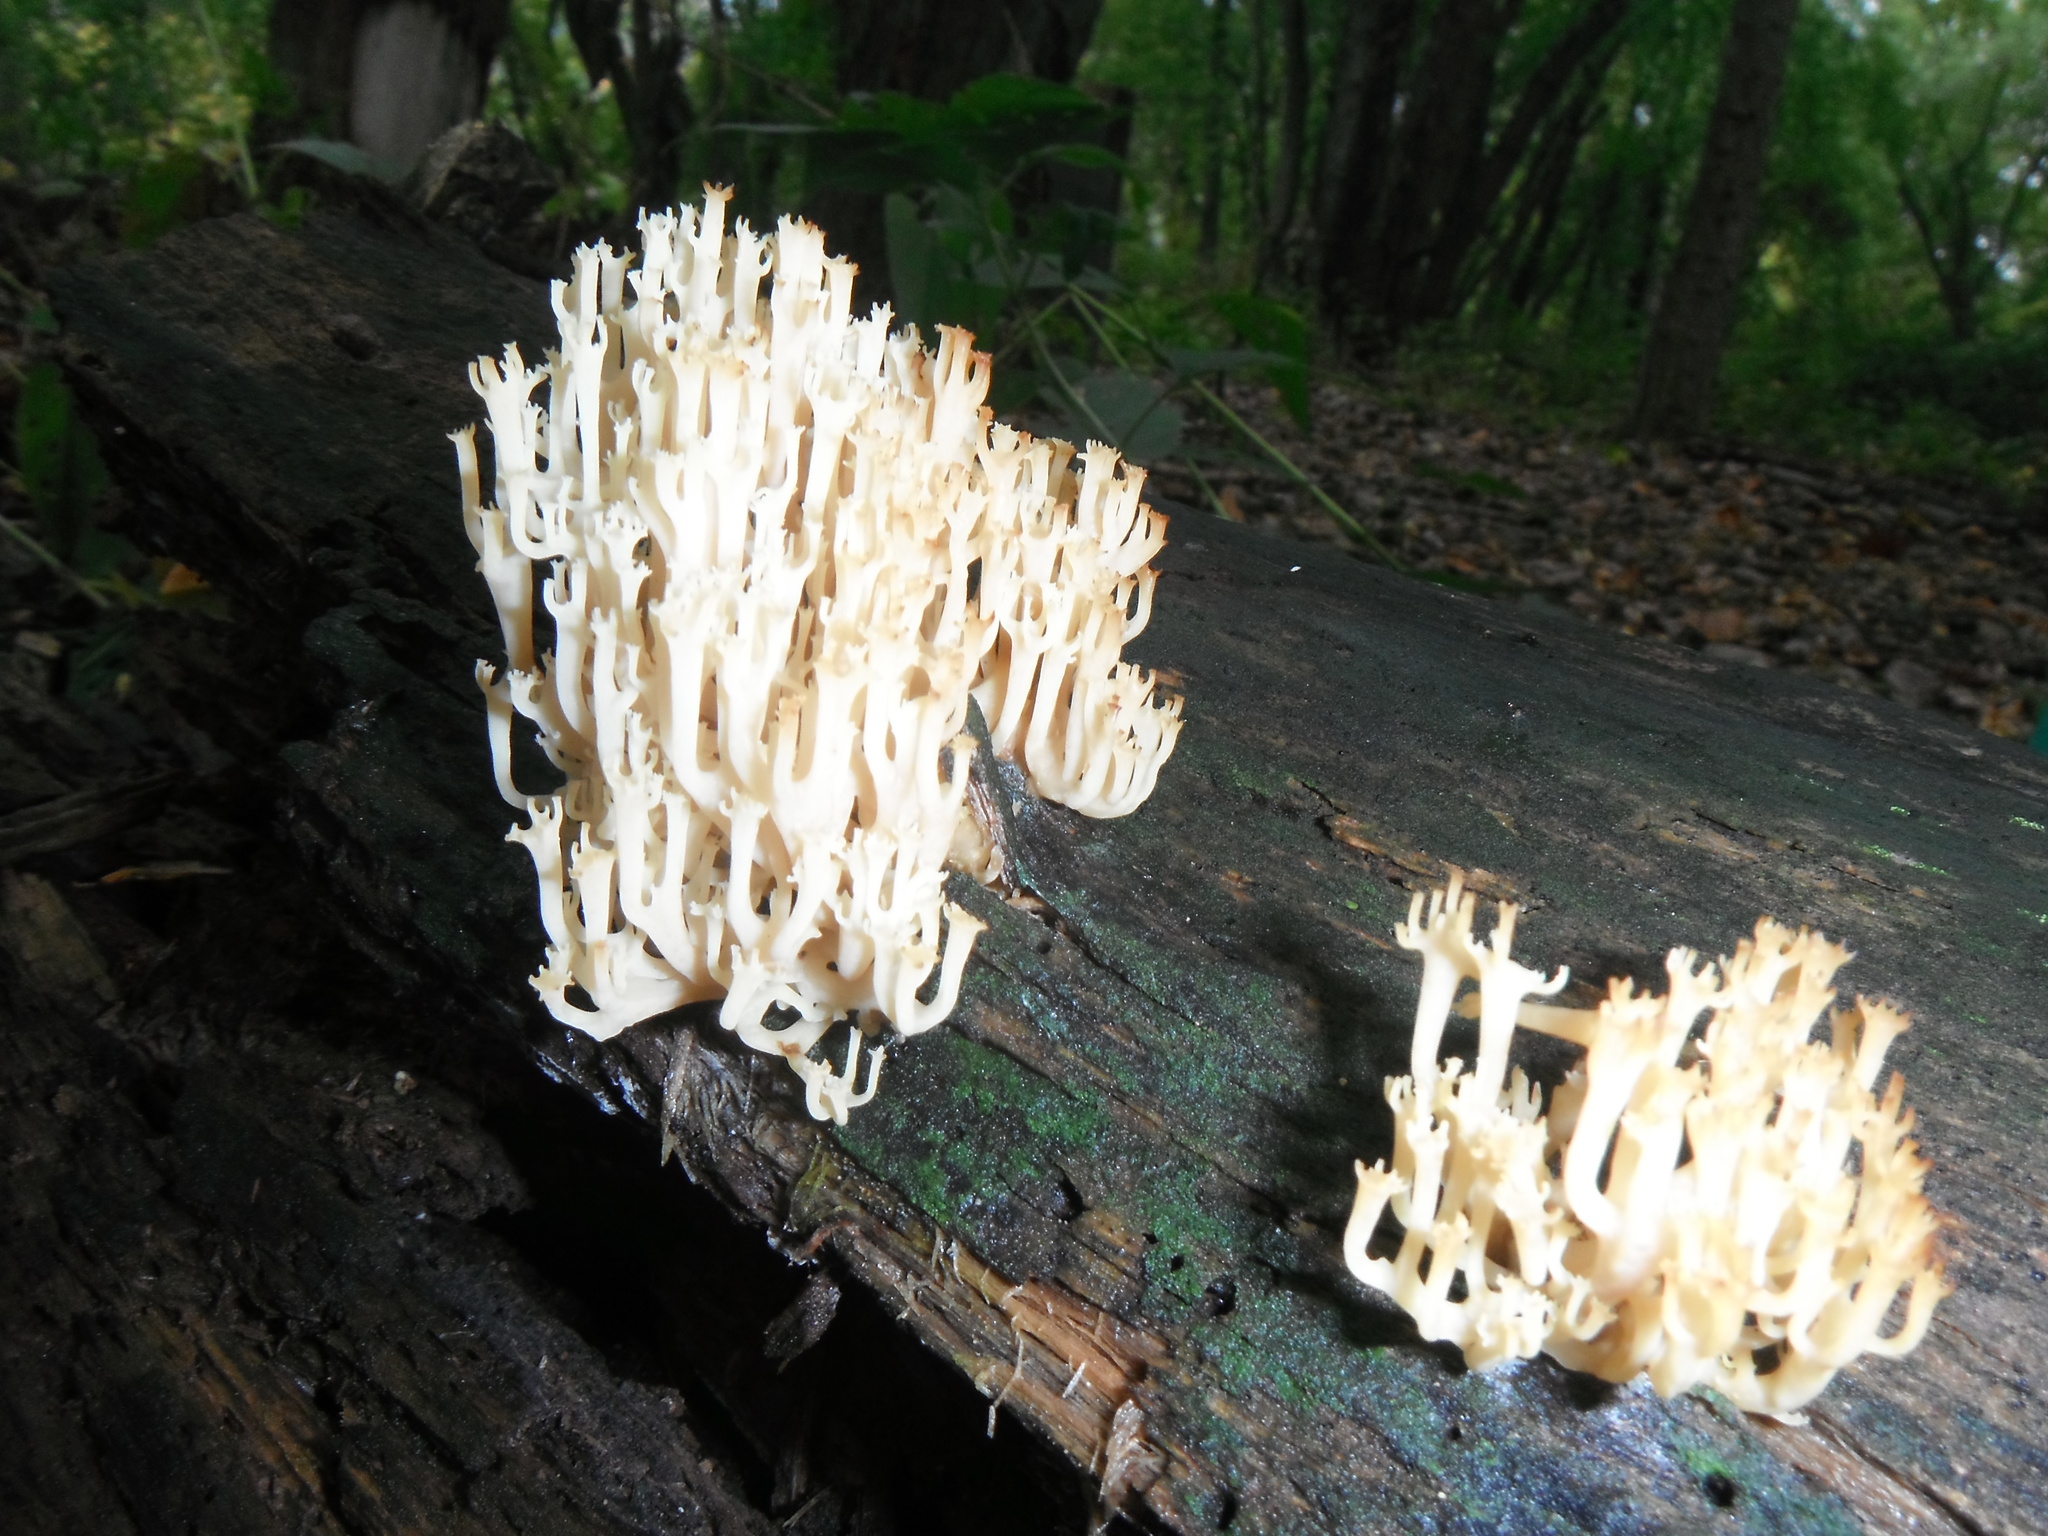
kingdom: Fungi
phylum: Basidiomycota
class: Agaricomycetes
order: Russulales
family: Auriscalpiaceae
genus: Artomyces
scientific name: Artomyces pyxidatus
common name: Crown-tipped coral fungus
